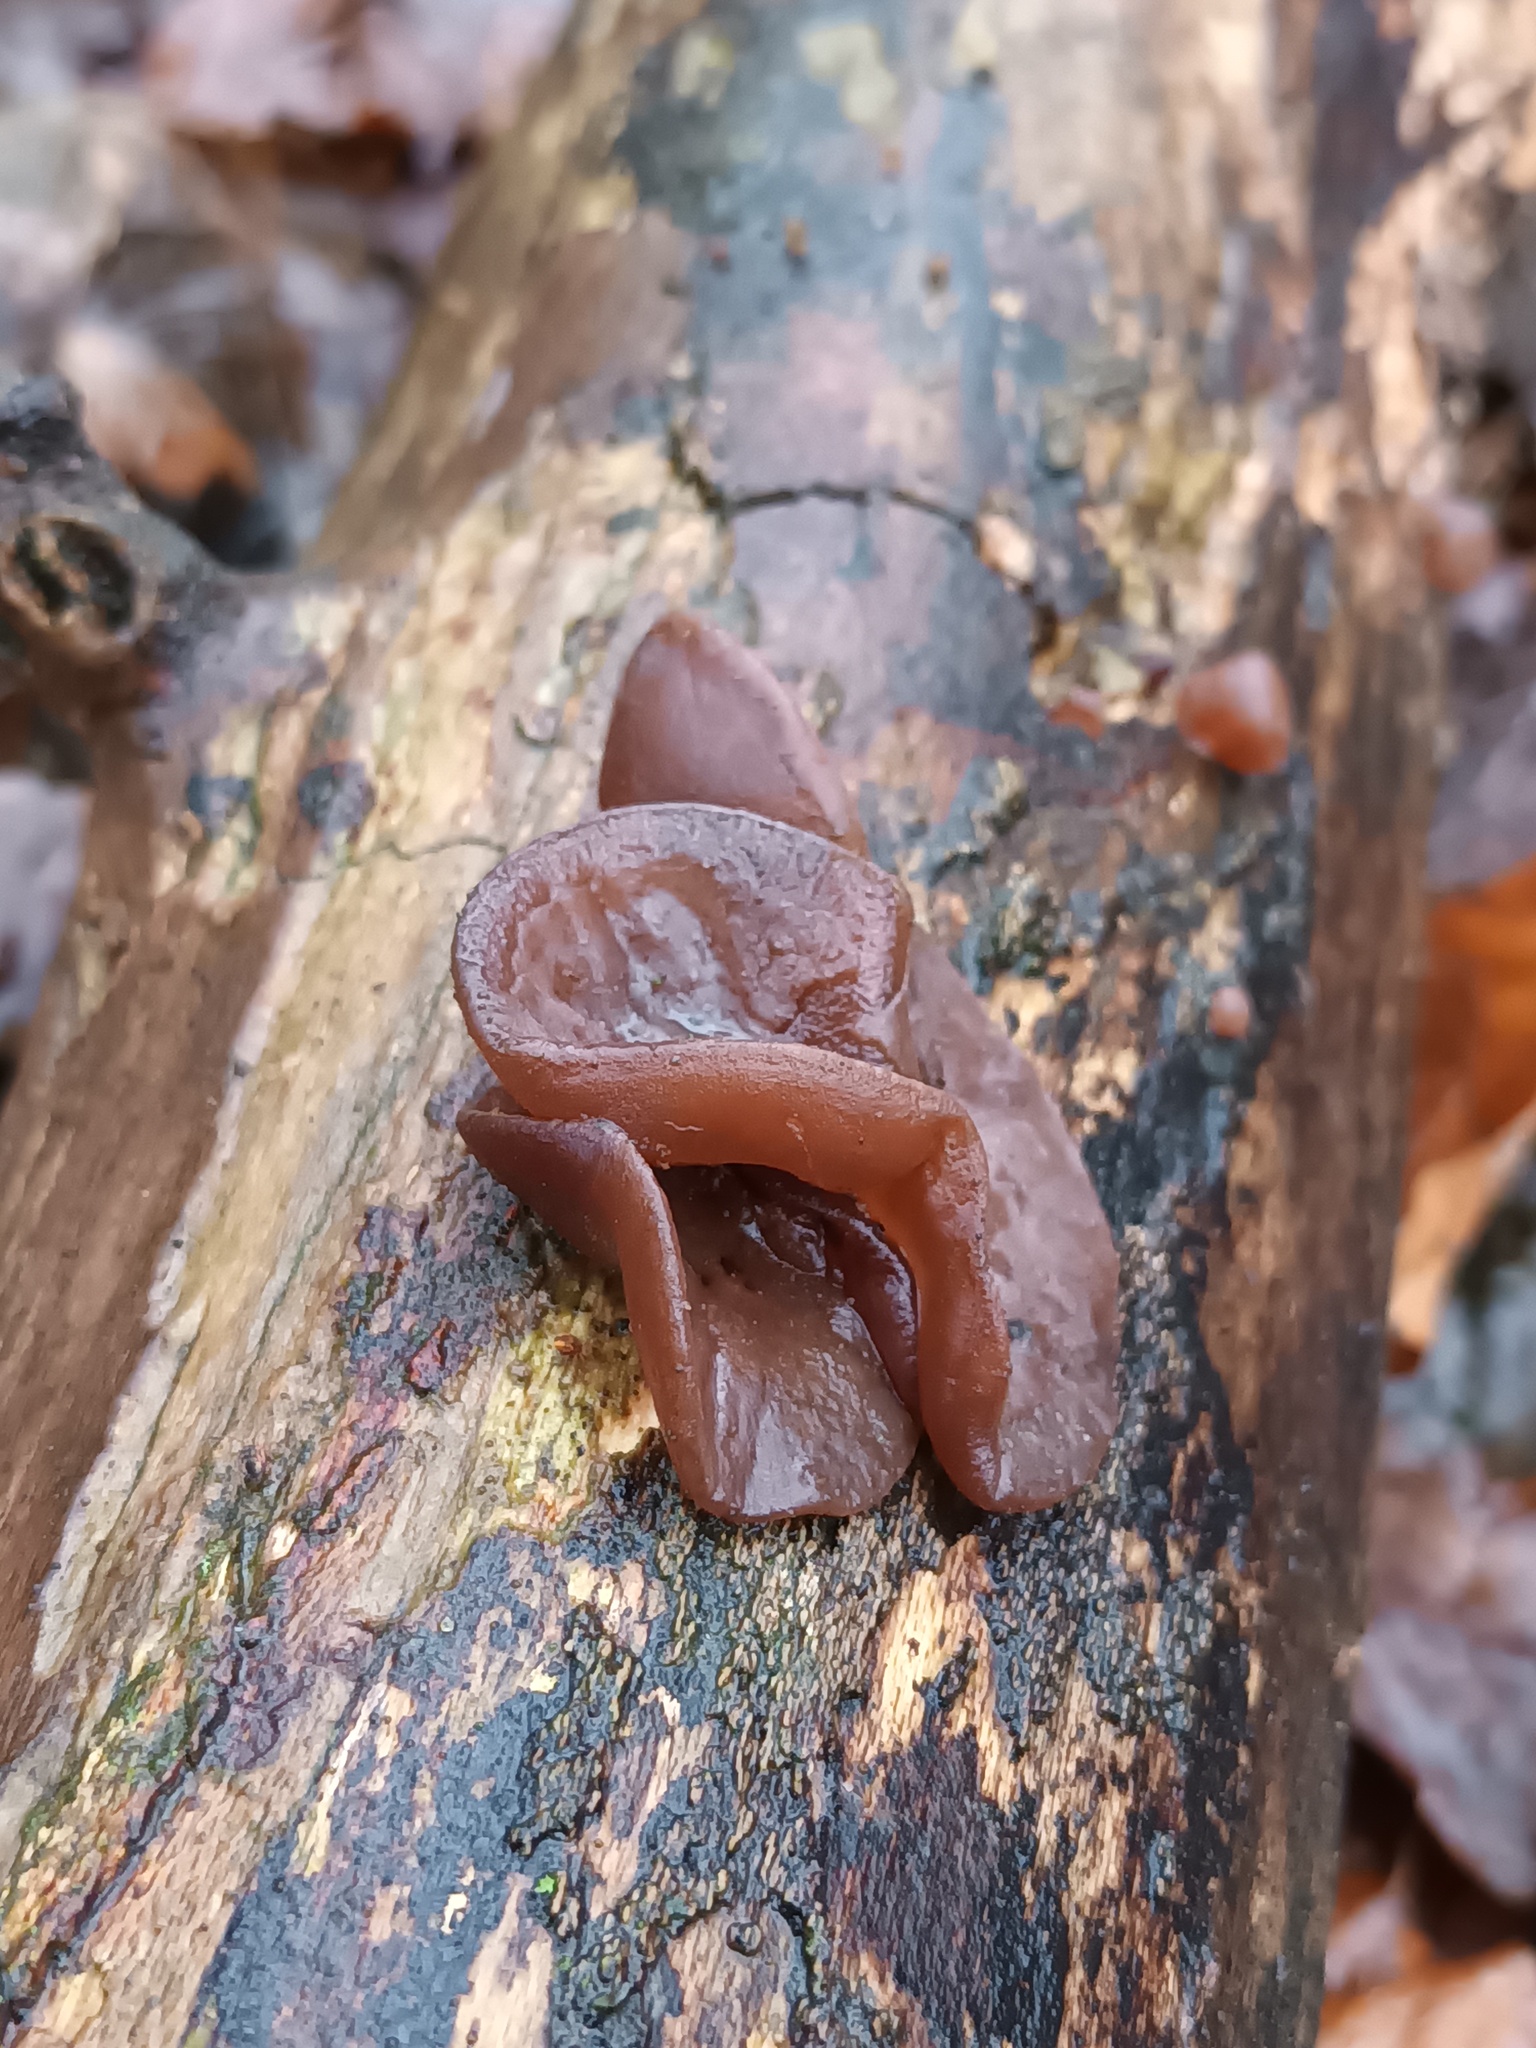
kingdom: Fungi
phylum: Basidiomycota
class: Agaricomycetes
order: Auriculariales
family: Auriculariaceae
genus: Auricularia
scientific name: Auricularia auricula-judae
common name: Jelly ear
